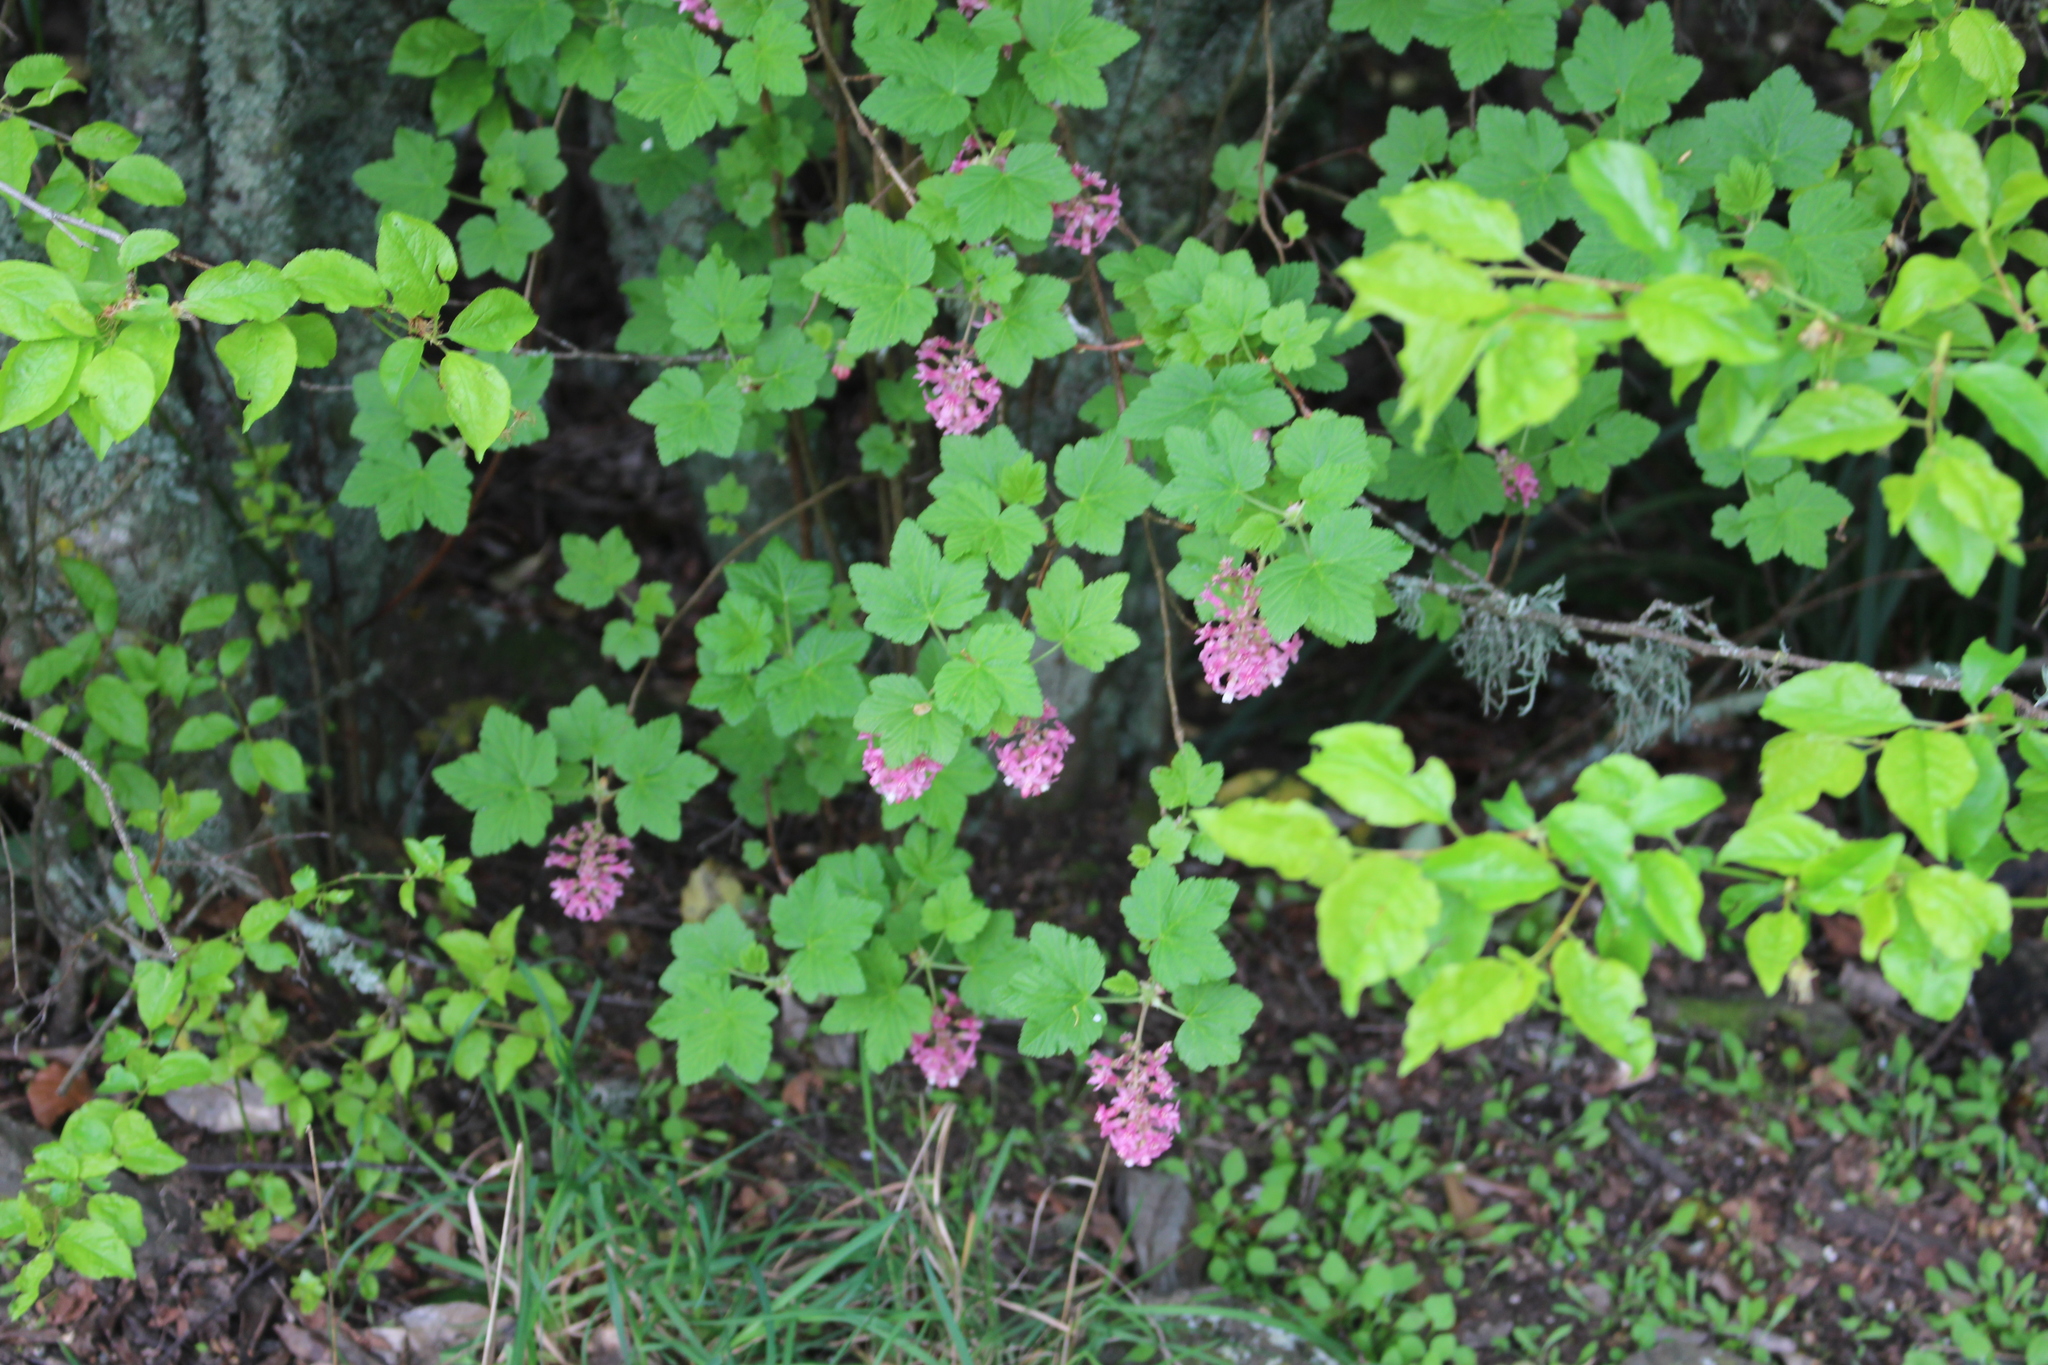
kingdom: Plantae
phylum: Tracheophyta
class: Magnoliopsida
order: Saxifragales
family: Grossulariaceae
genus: Ribes
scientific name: Ribes sanguineum
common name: Flowering currant
